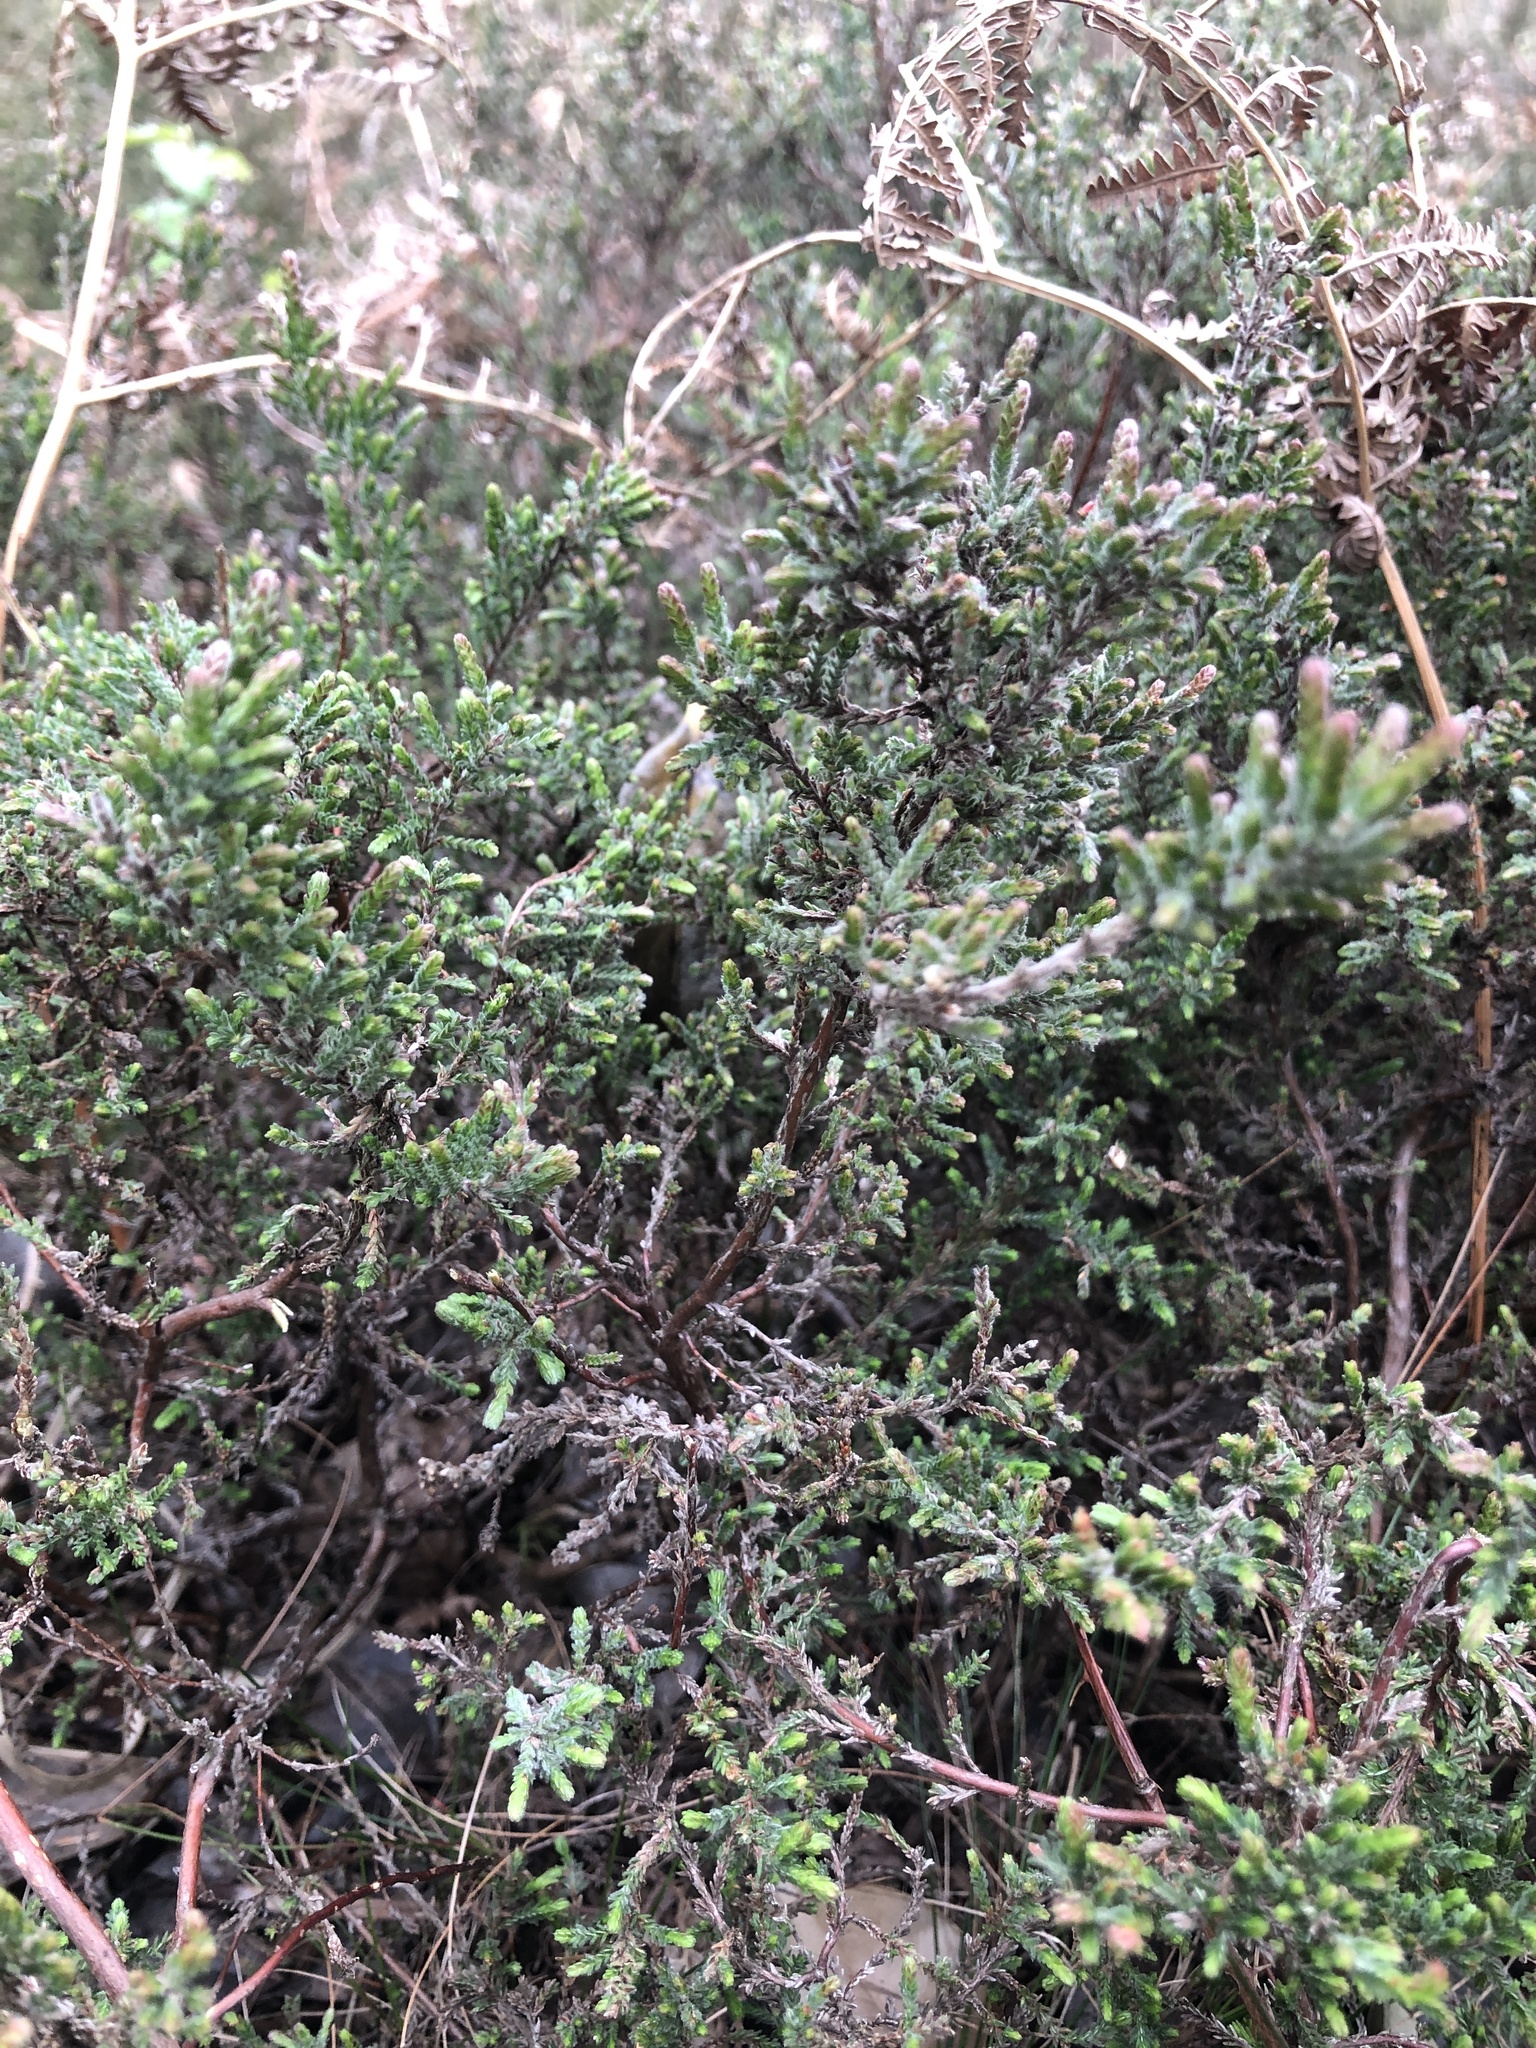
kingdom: Plantae
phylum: Tracheophyta
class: Magnoliopsida
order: Ericales
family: Ericaceae
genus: Calluna
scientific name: Calluna vulgaris
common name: Heather
